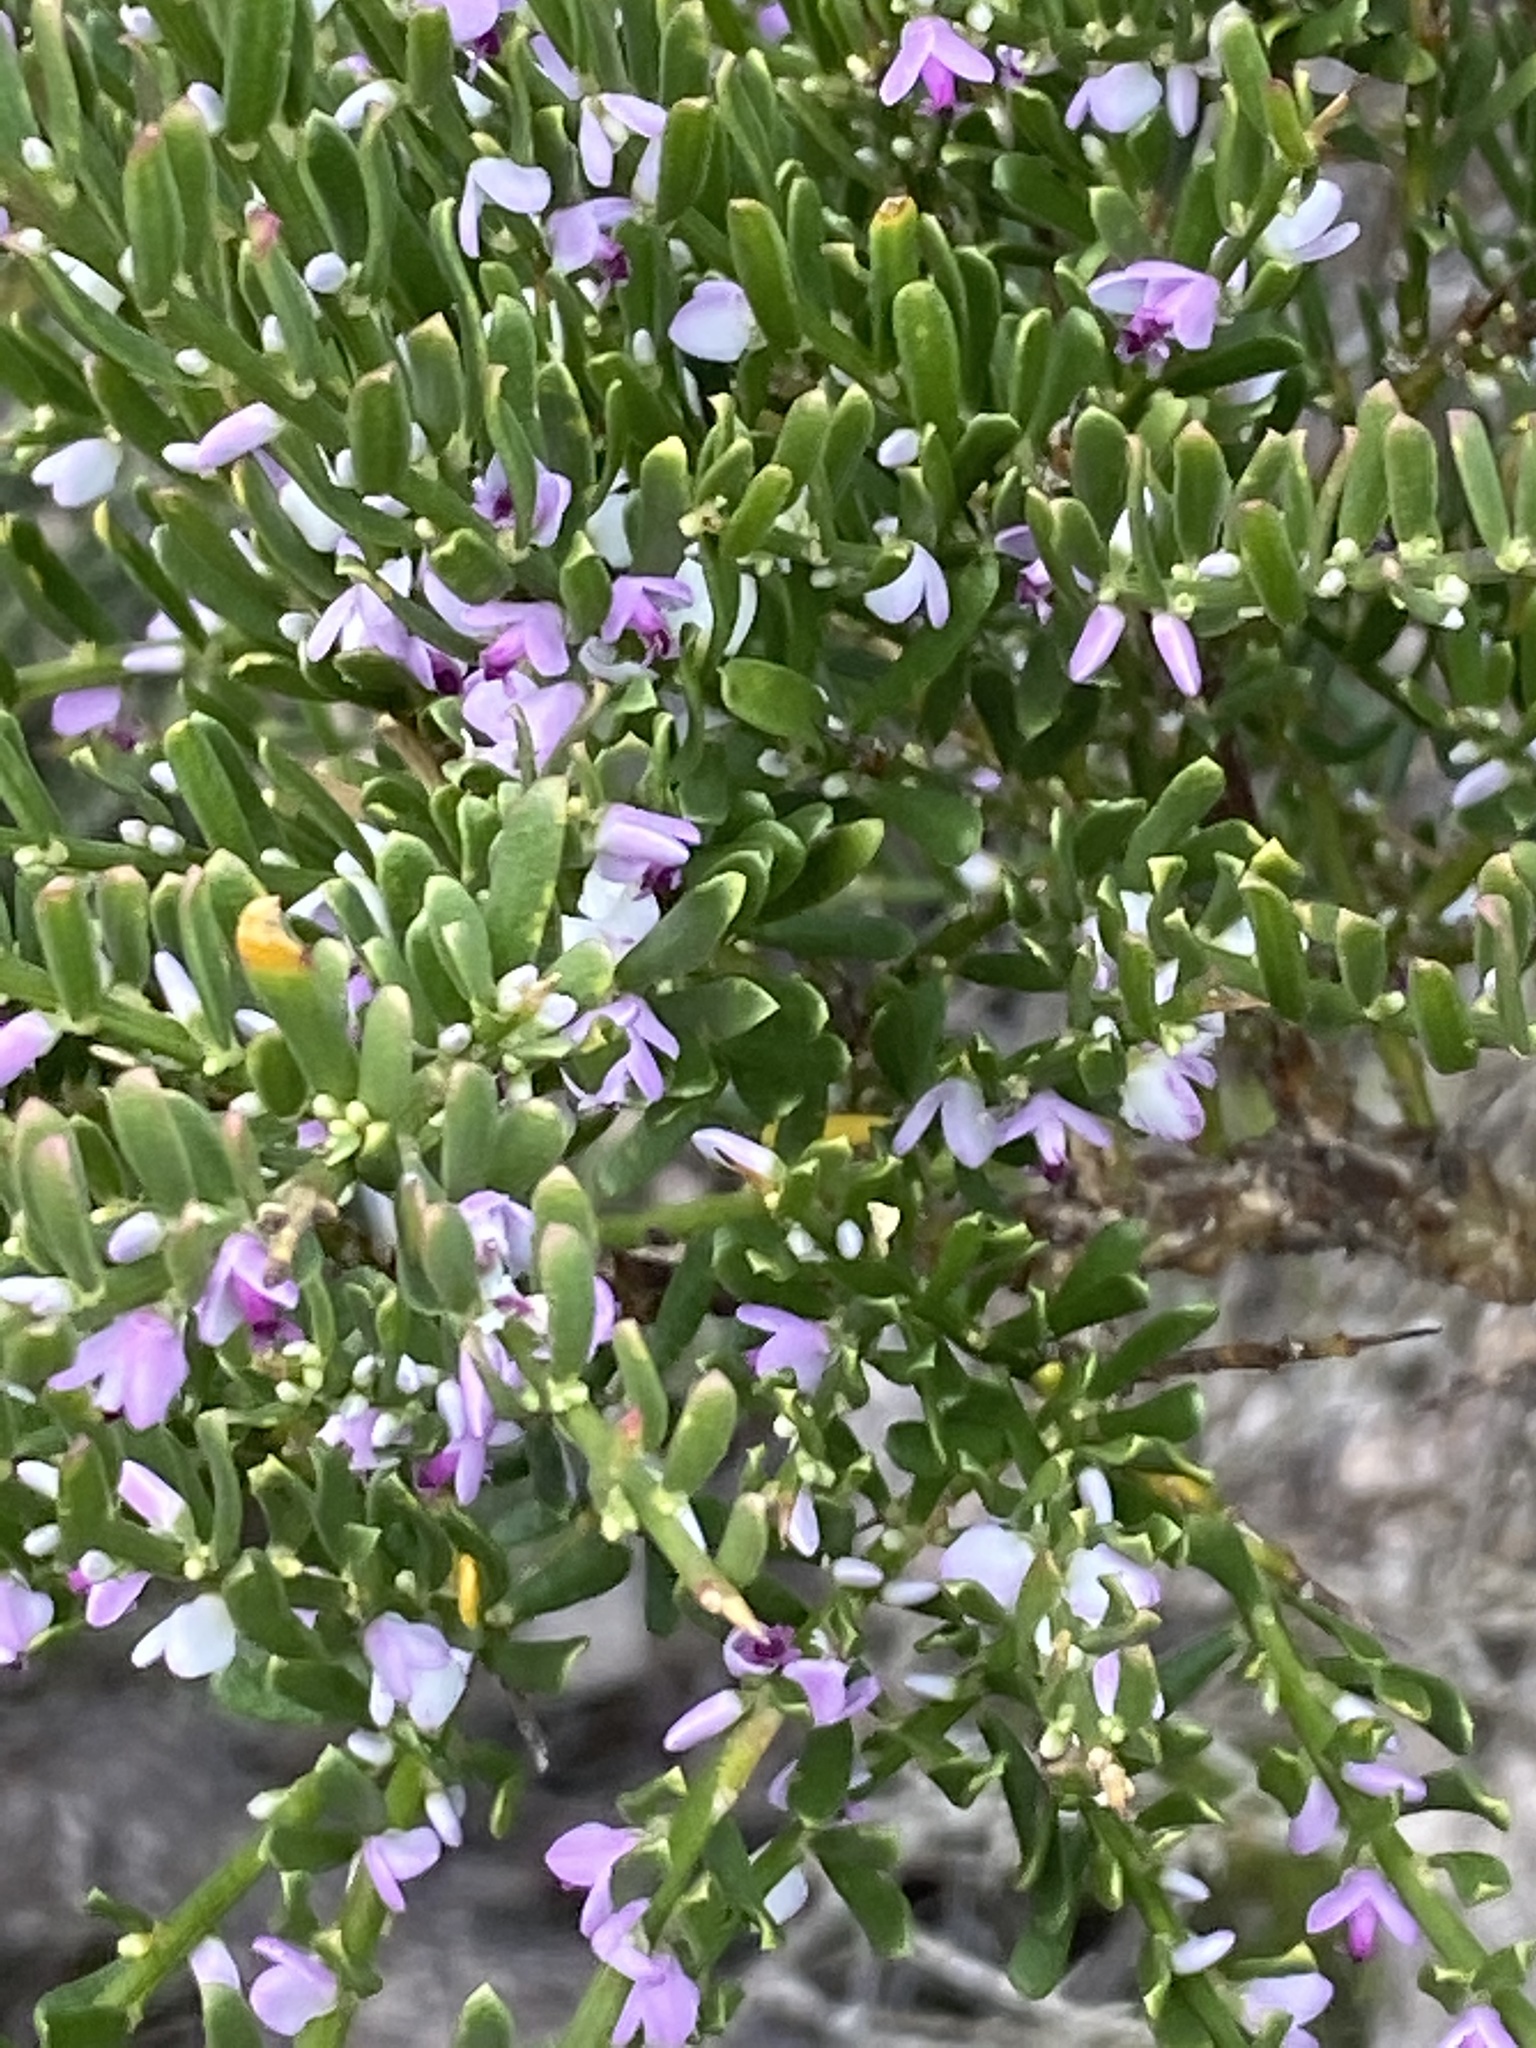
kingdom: Plantae
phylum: Tracheophyta
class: Magnoliopsida
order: Fabales
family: Polygalaceae
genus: Muraltia
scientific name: Muraltia spinosa
